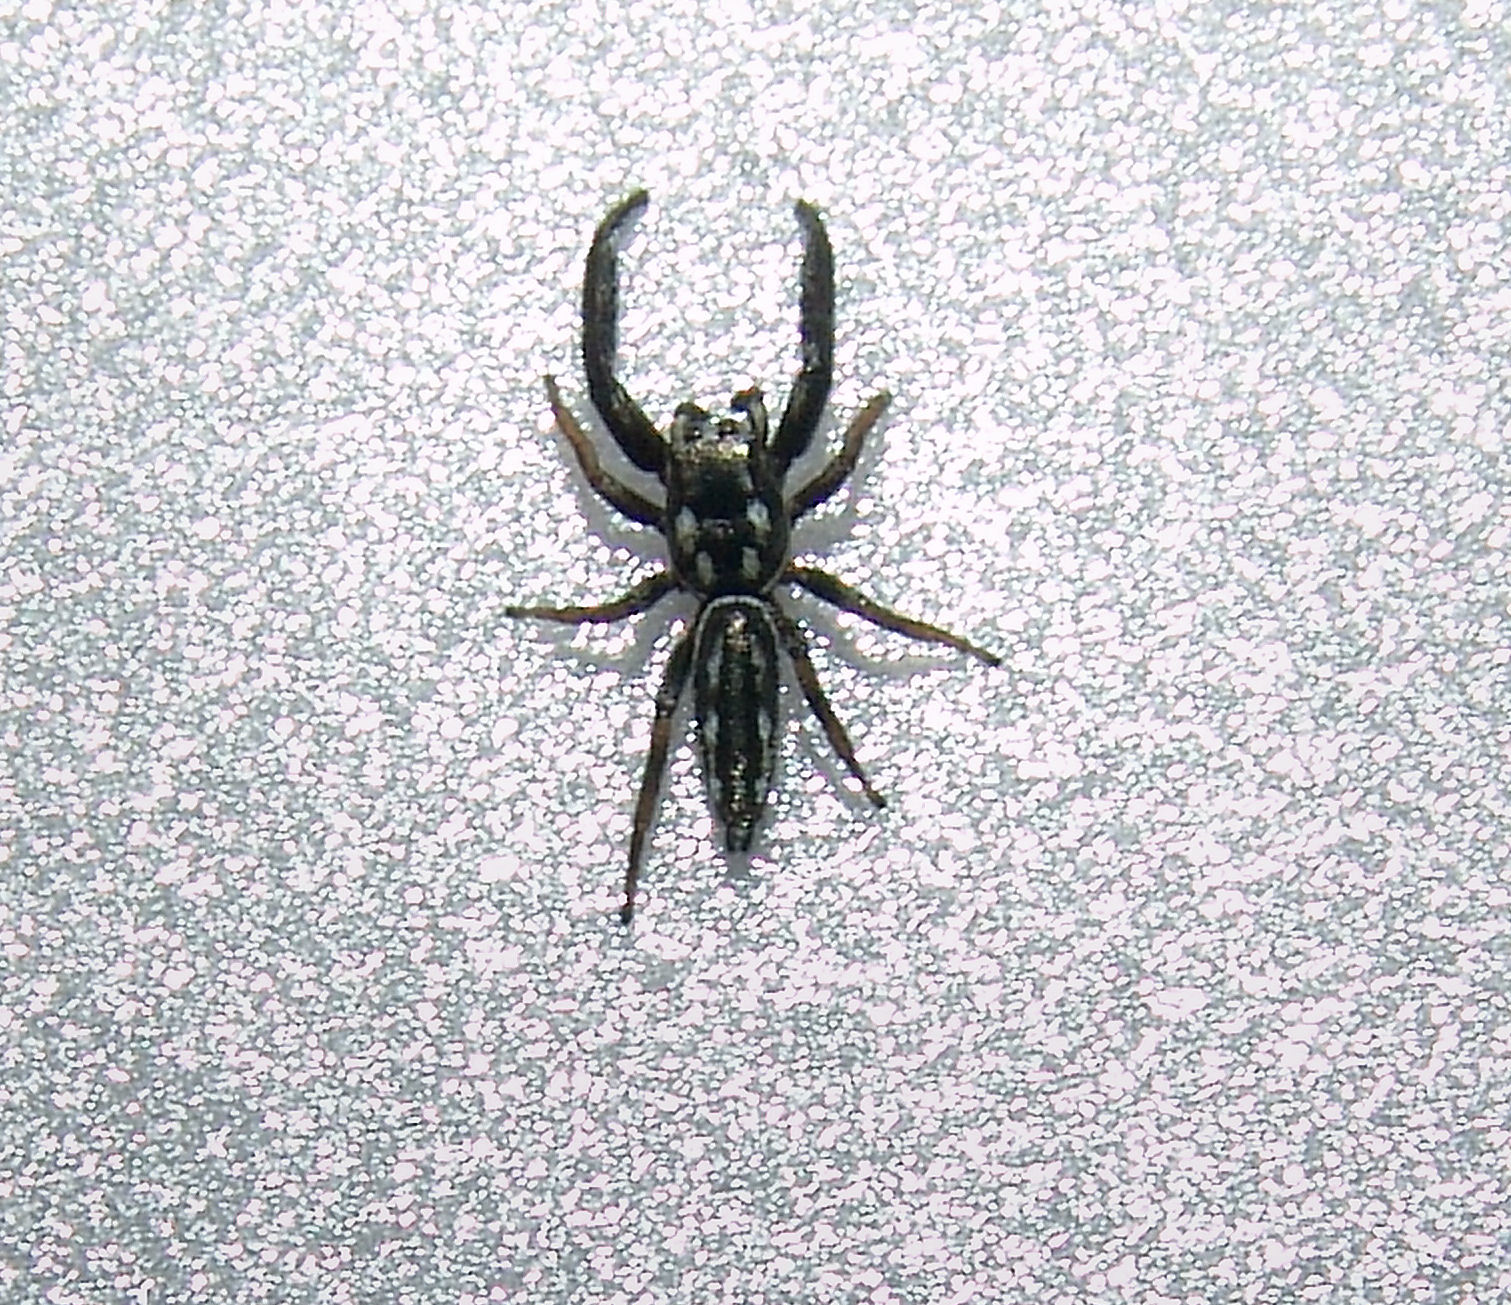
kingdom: Animalia
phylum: Arthropoda
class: Arachnida
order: Araneae
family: Salticidae
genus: Marpissa
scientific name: Marpissa formosa
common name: Short-bellied slender jumping spider
